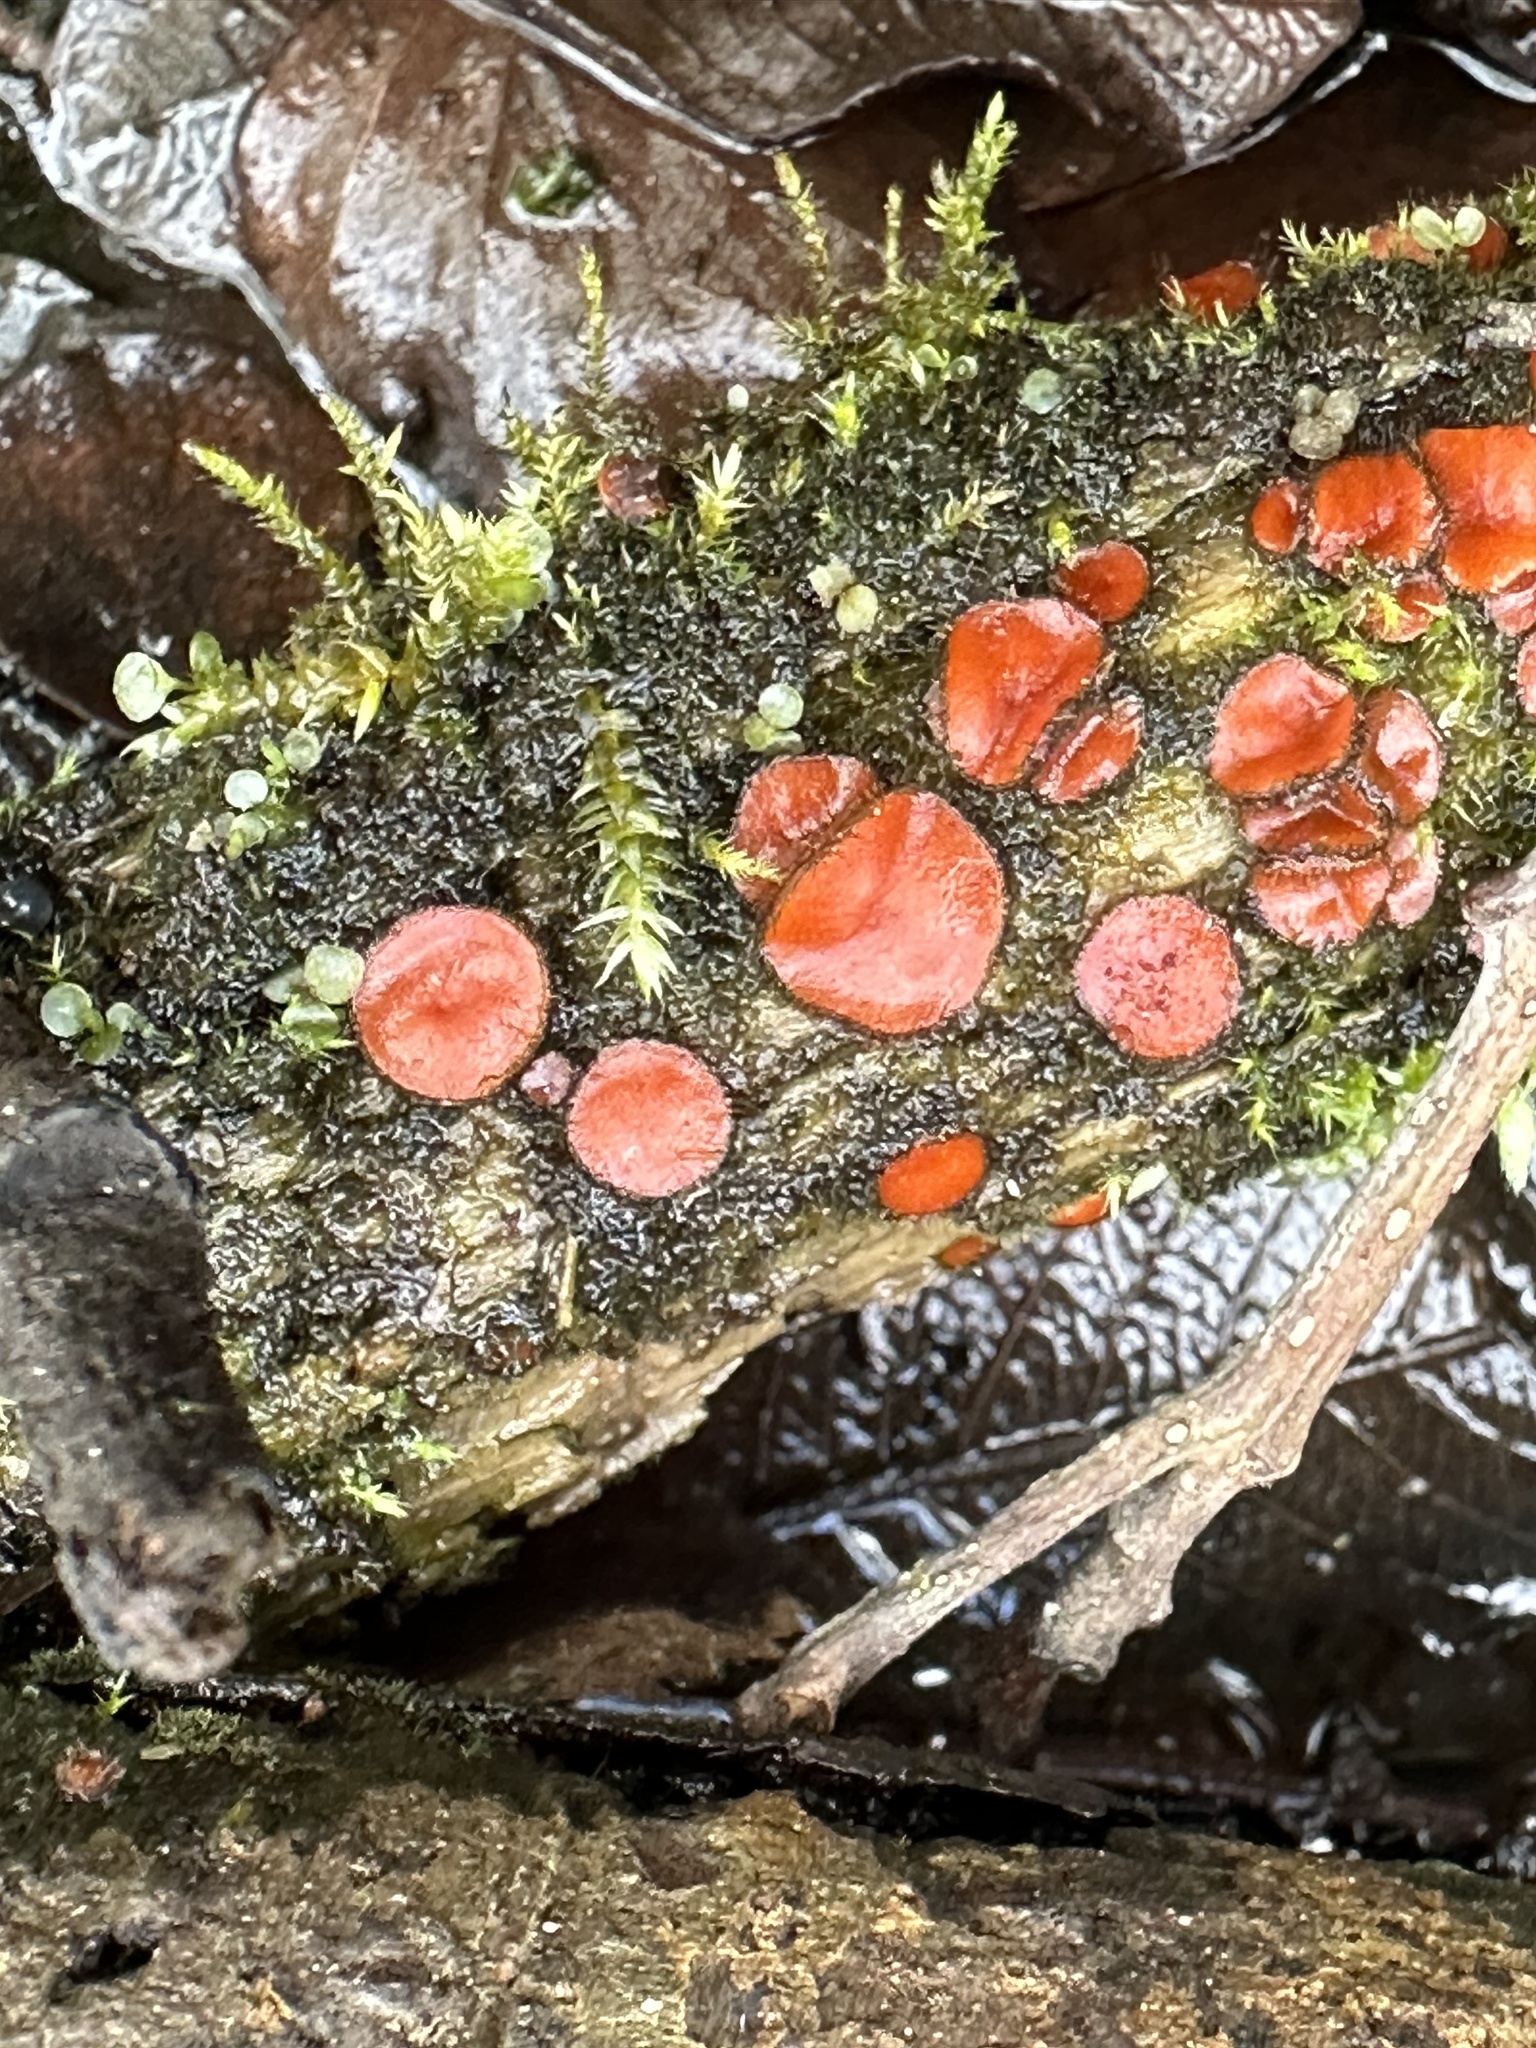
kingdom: Fungi
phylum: Ascomycota
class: Pezizomycetes
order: Pezizales
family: Pyronemataceae
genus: Scutellinia
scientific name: Scutellinia
